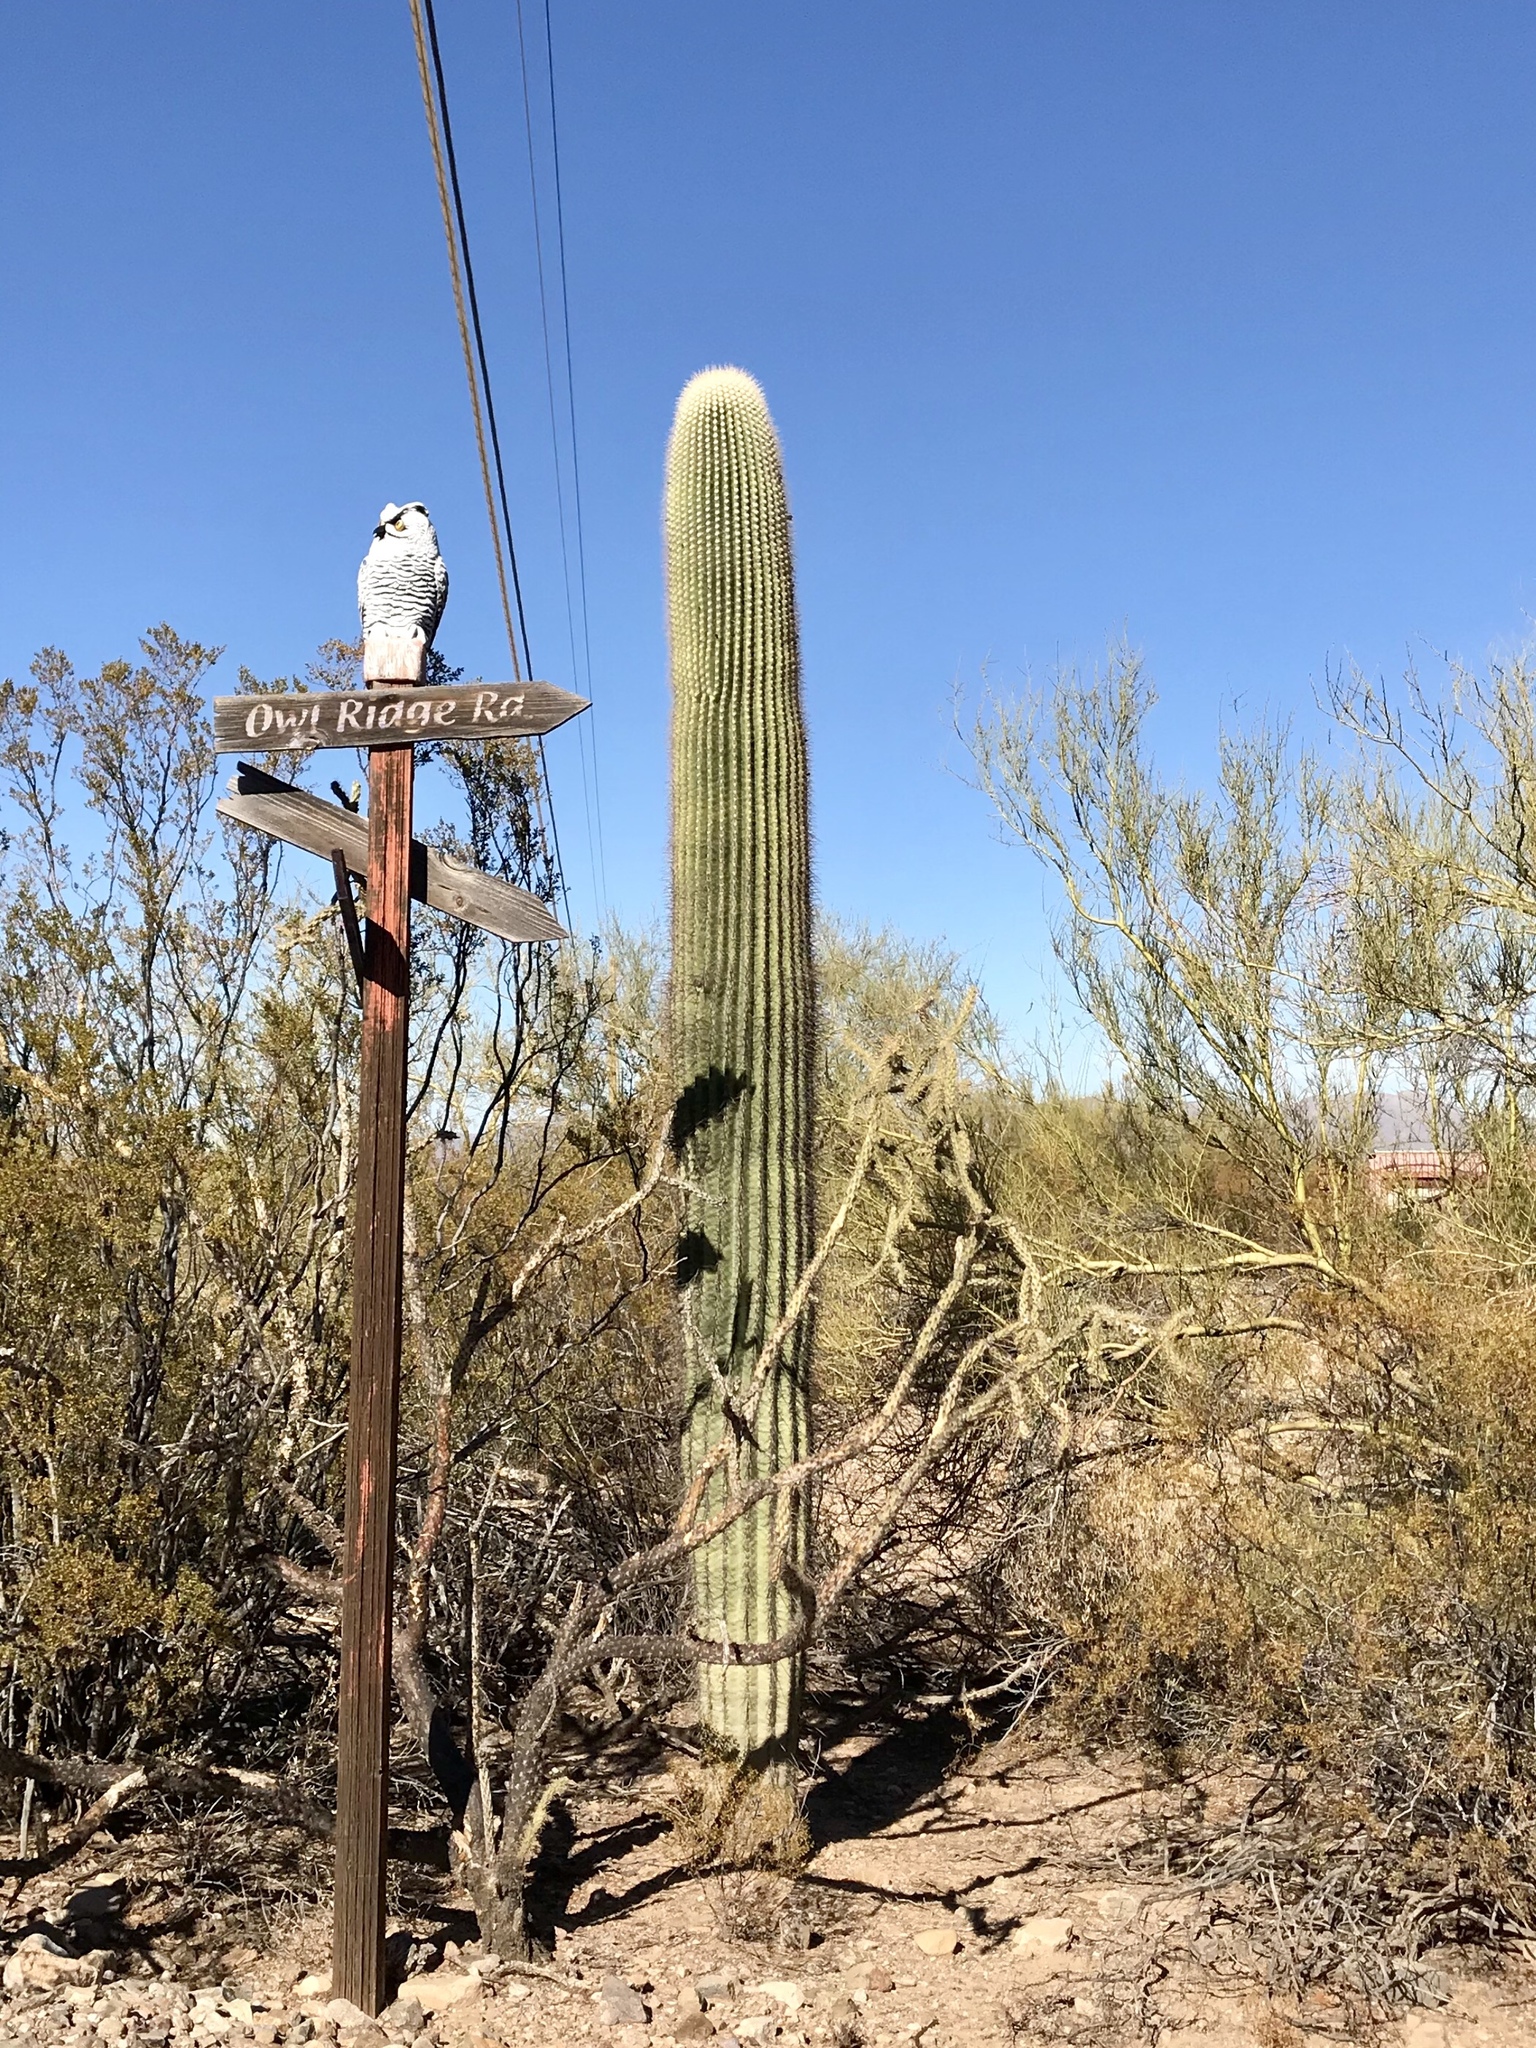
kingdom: Plantae
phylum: Tracheophyta
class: Magnoliopsida
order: Caryophyllales
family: Cactaceae
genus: Carnegiea
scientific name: Carnegiea gigantea
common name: Saguaro
